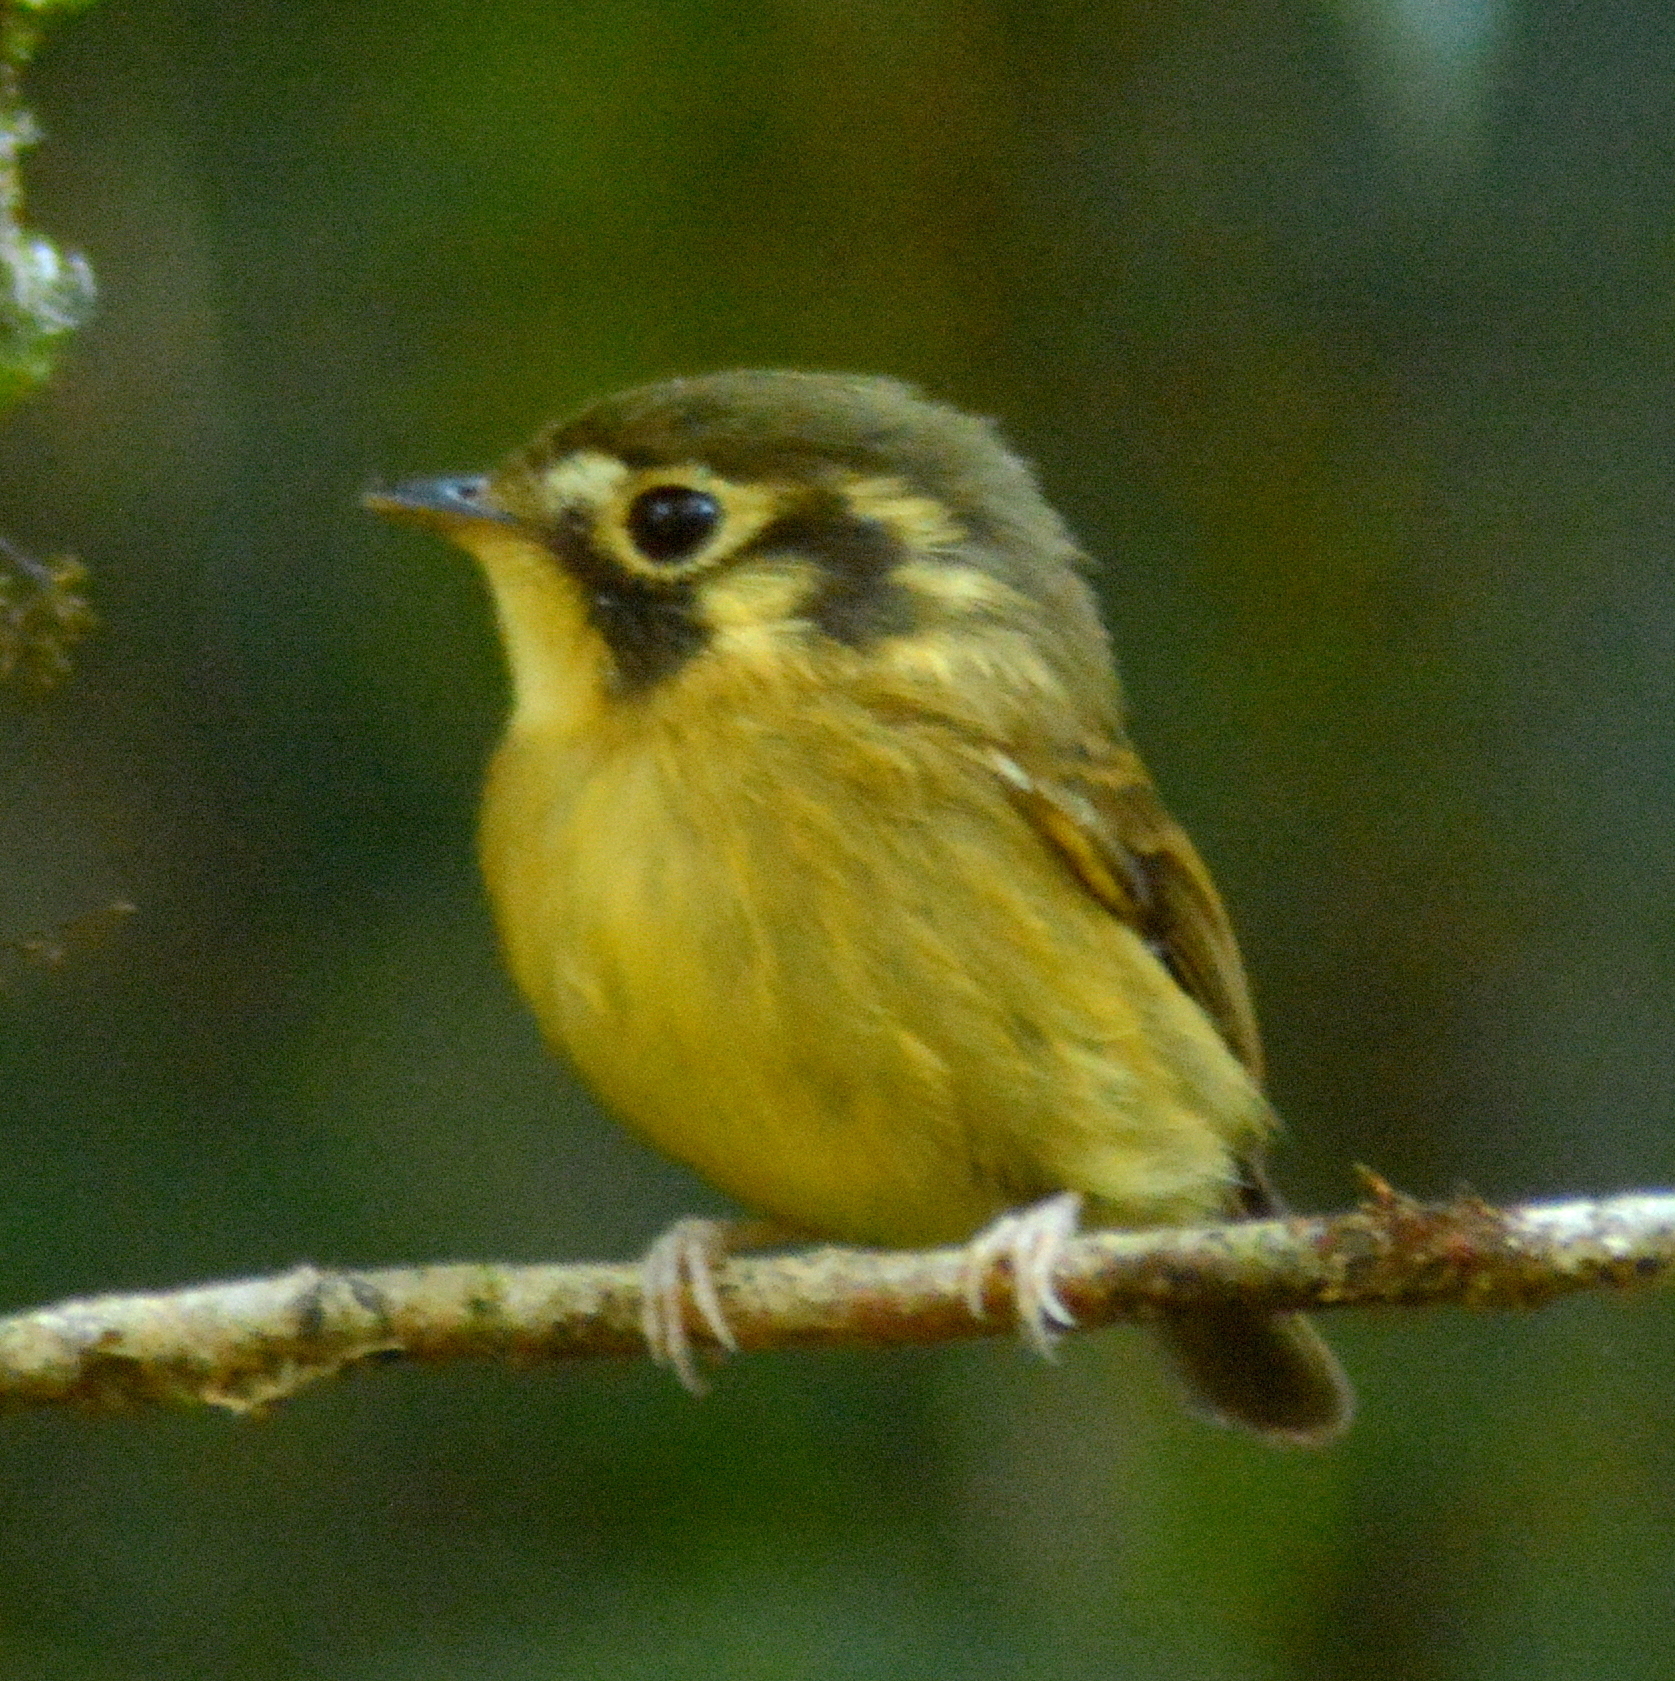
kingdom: Animalia
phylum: Chordata
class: Aves
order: Passeriformes
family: Tyrannidae
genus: Platyrinchus
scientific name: Platyrinchus mystaceus
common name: White-throated spadebill
